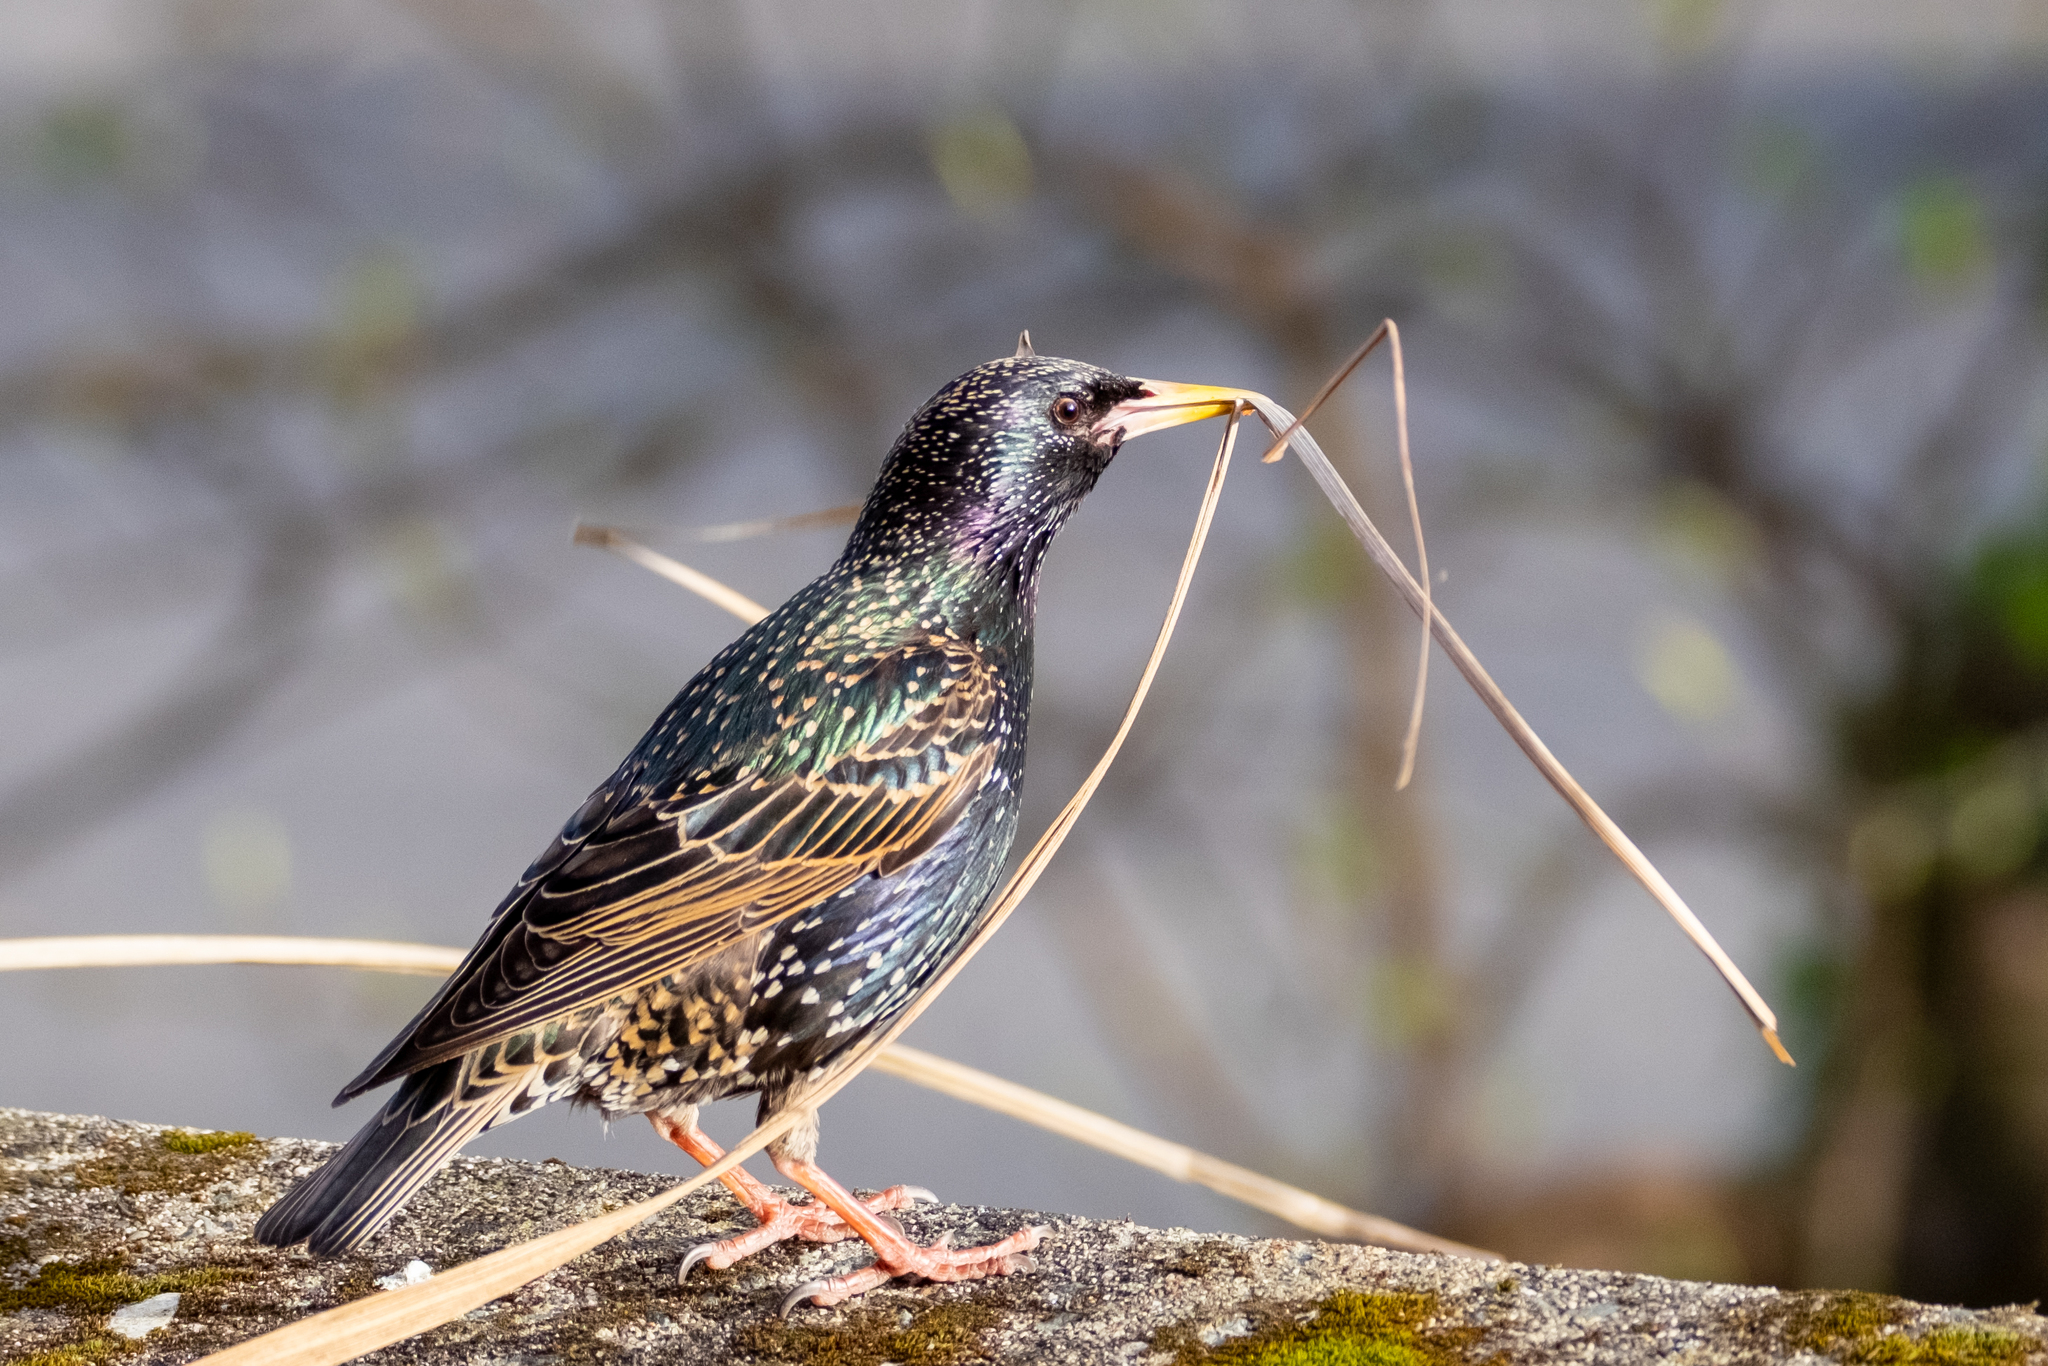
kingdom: Animalia
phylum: Chordata
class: Aves
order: Passeriformes
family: Sturnidae
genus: Sturnus
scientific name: Sturnus vulgaris
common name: Common starling
